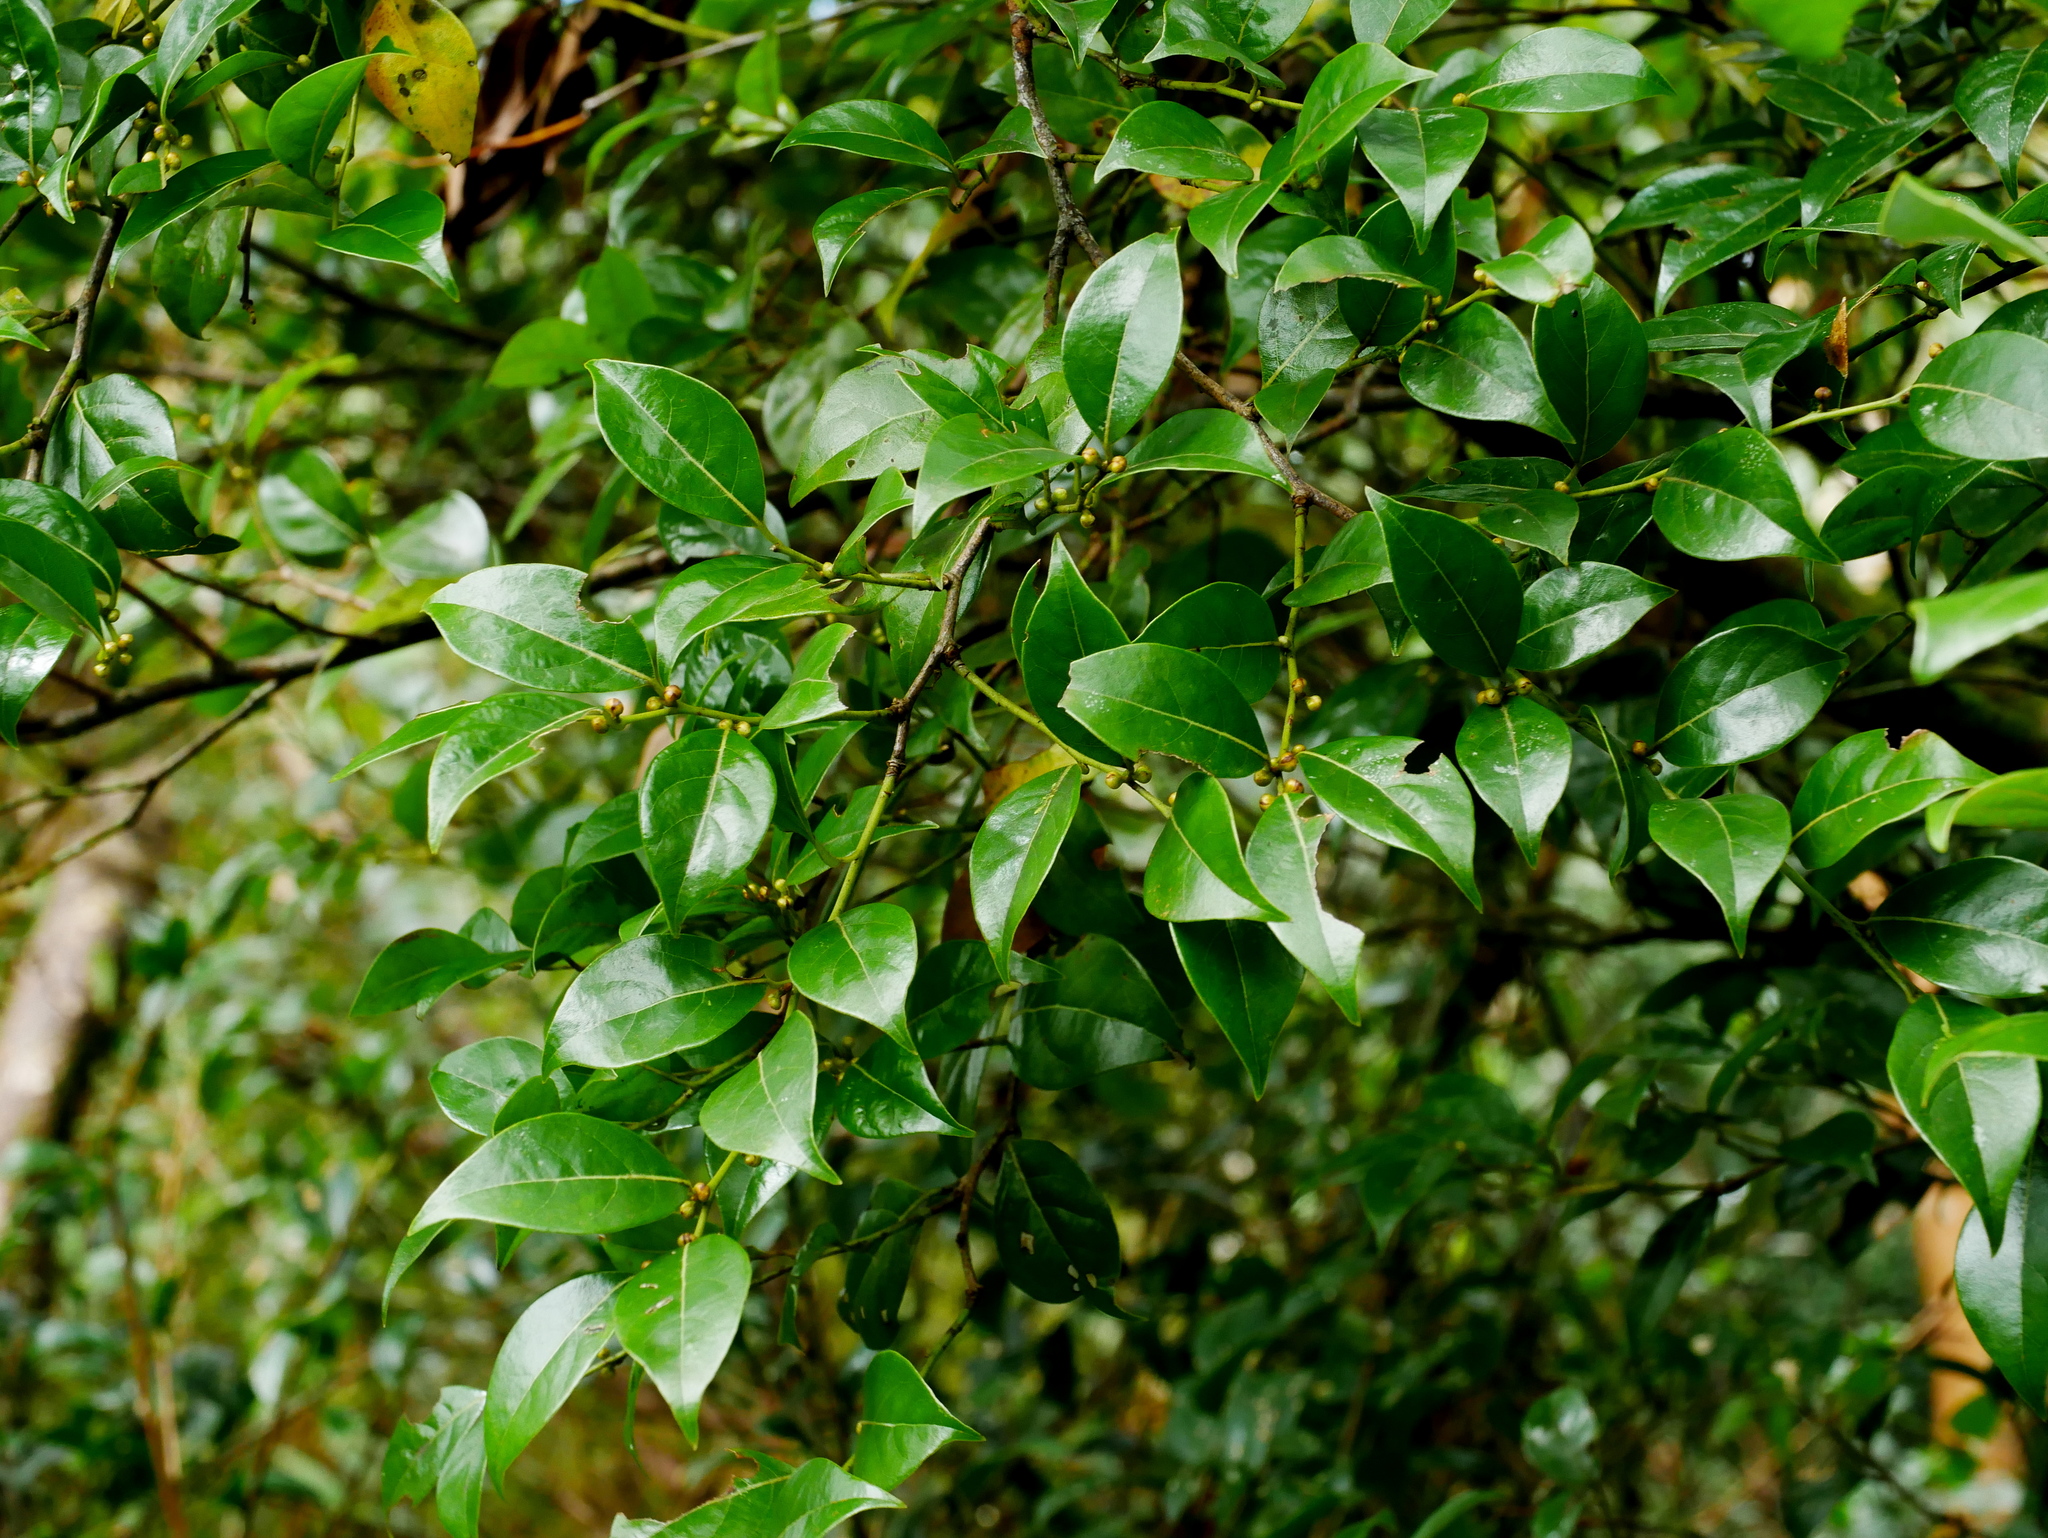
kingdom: Plantae
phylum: Tracheophyta
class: Magnoliopsida
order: Laurales
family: Lauraceae
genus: Lindera
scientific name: Lindera akoensis
